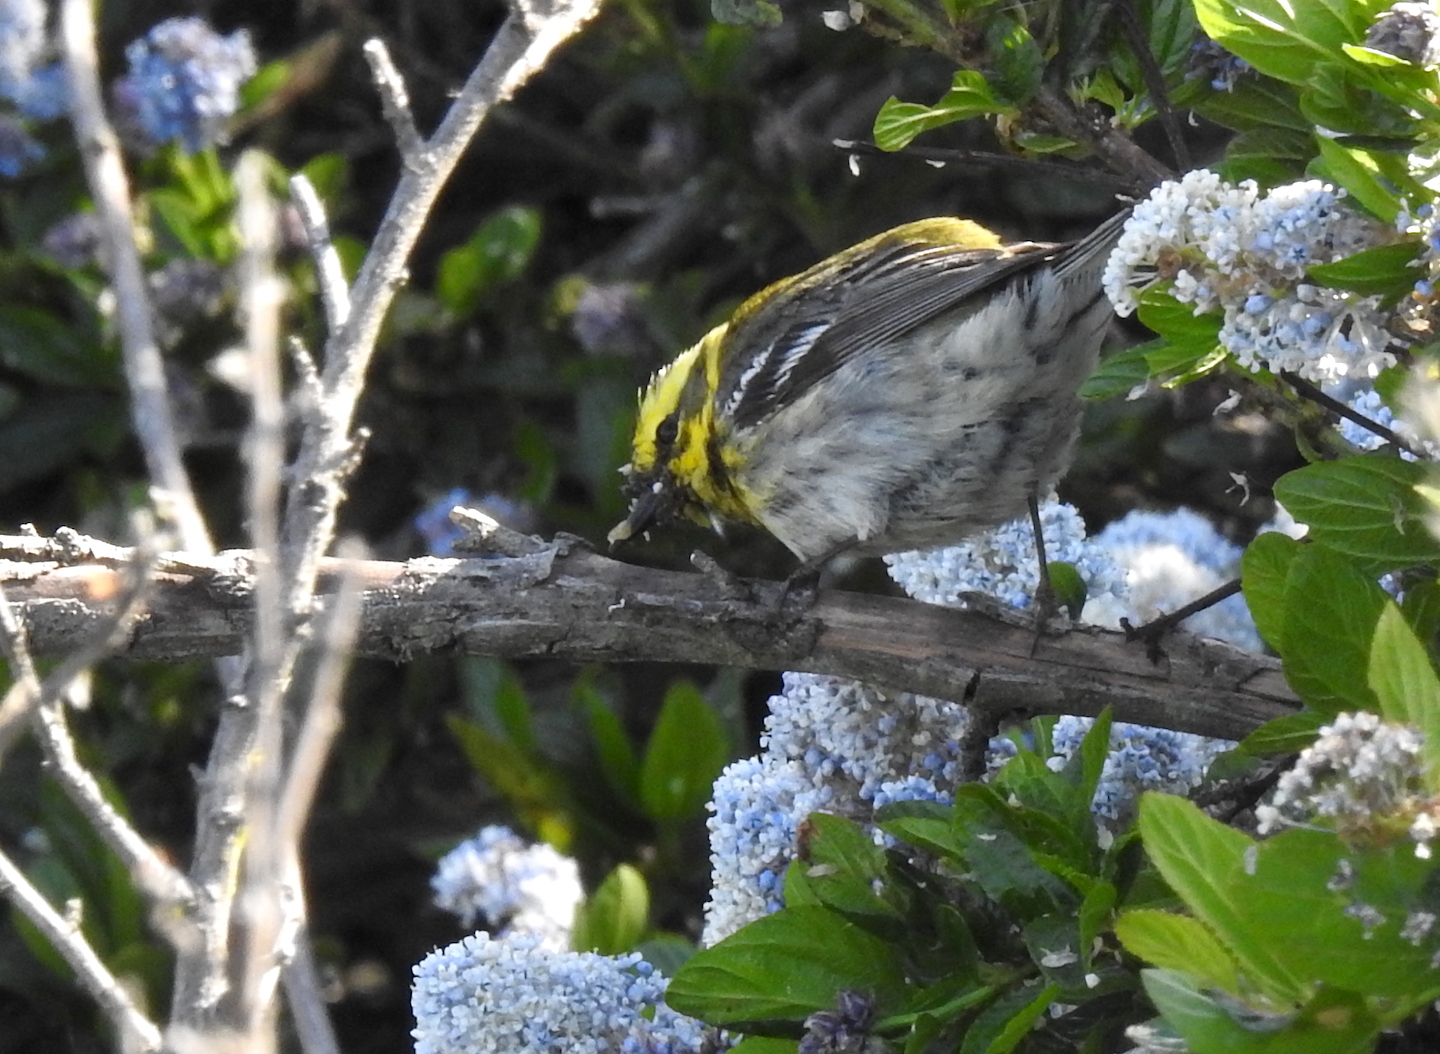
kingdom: Animalia
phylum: Chordata
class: Aves
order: Passeriformes
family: Parulidae
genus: Setophaga
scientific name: Setophaga townsendi
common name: Townsend's warbler
